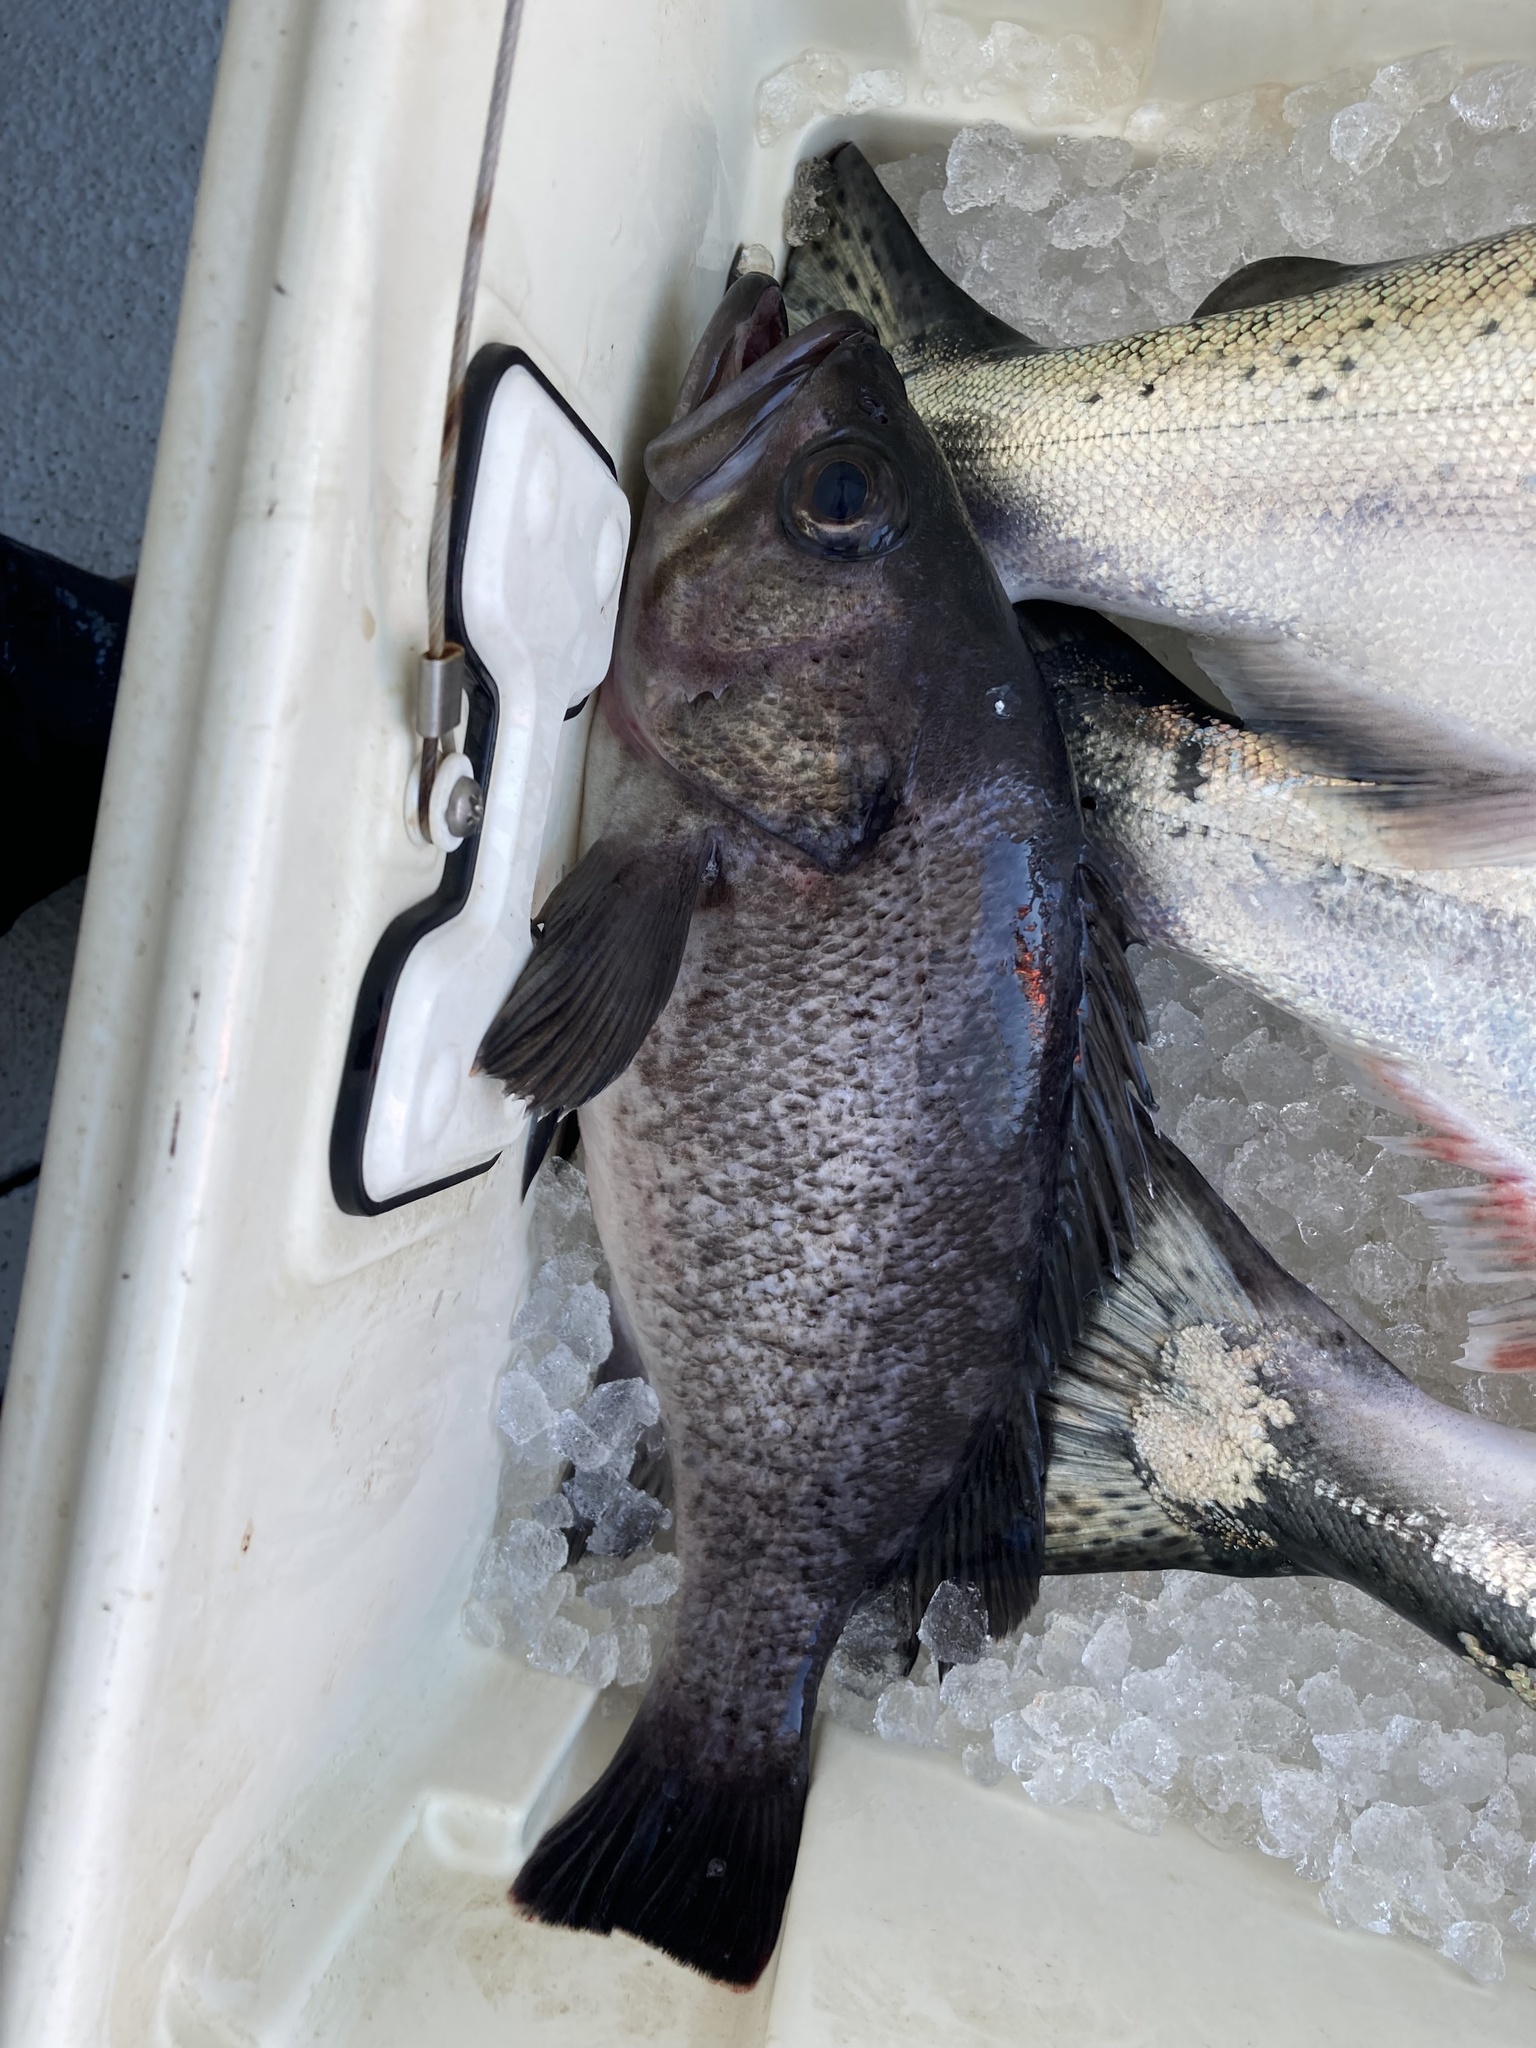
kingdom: Animalia
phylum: Chordata
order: Scorpaeniformes
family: Sebastidae
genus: Sebastes
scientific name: Sebastes melanops
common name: Black rockfish
